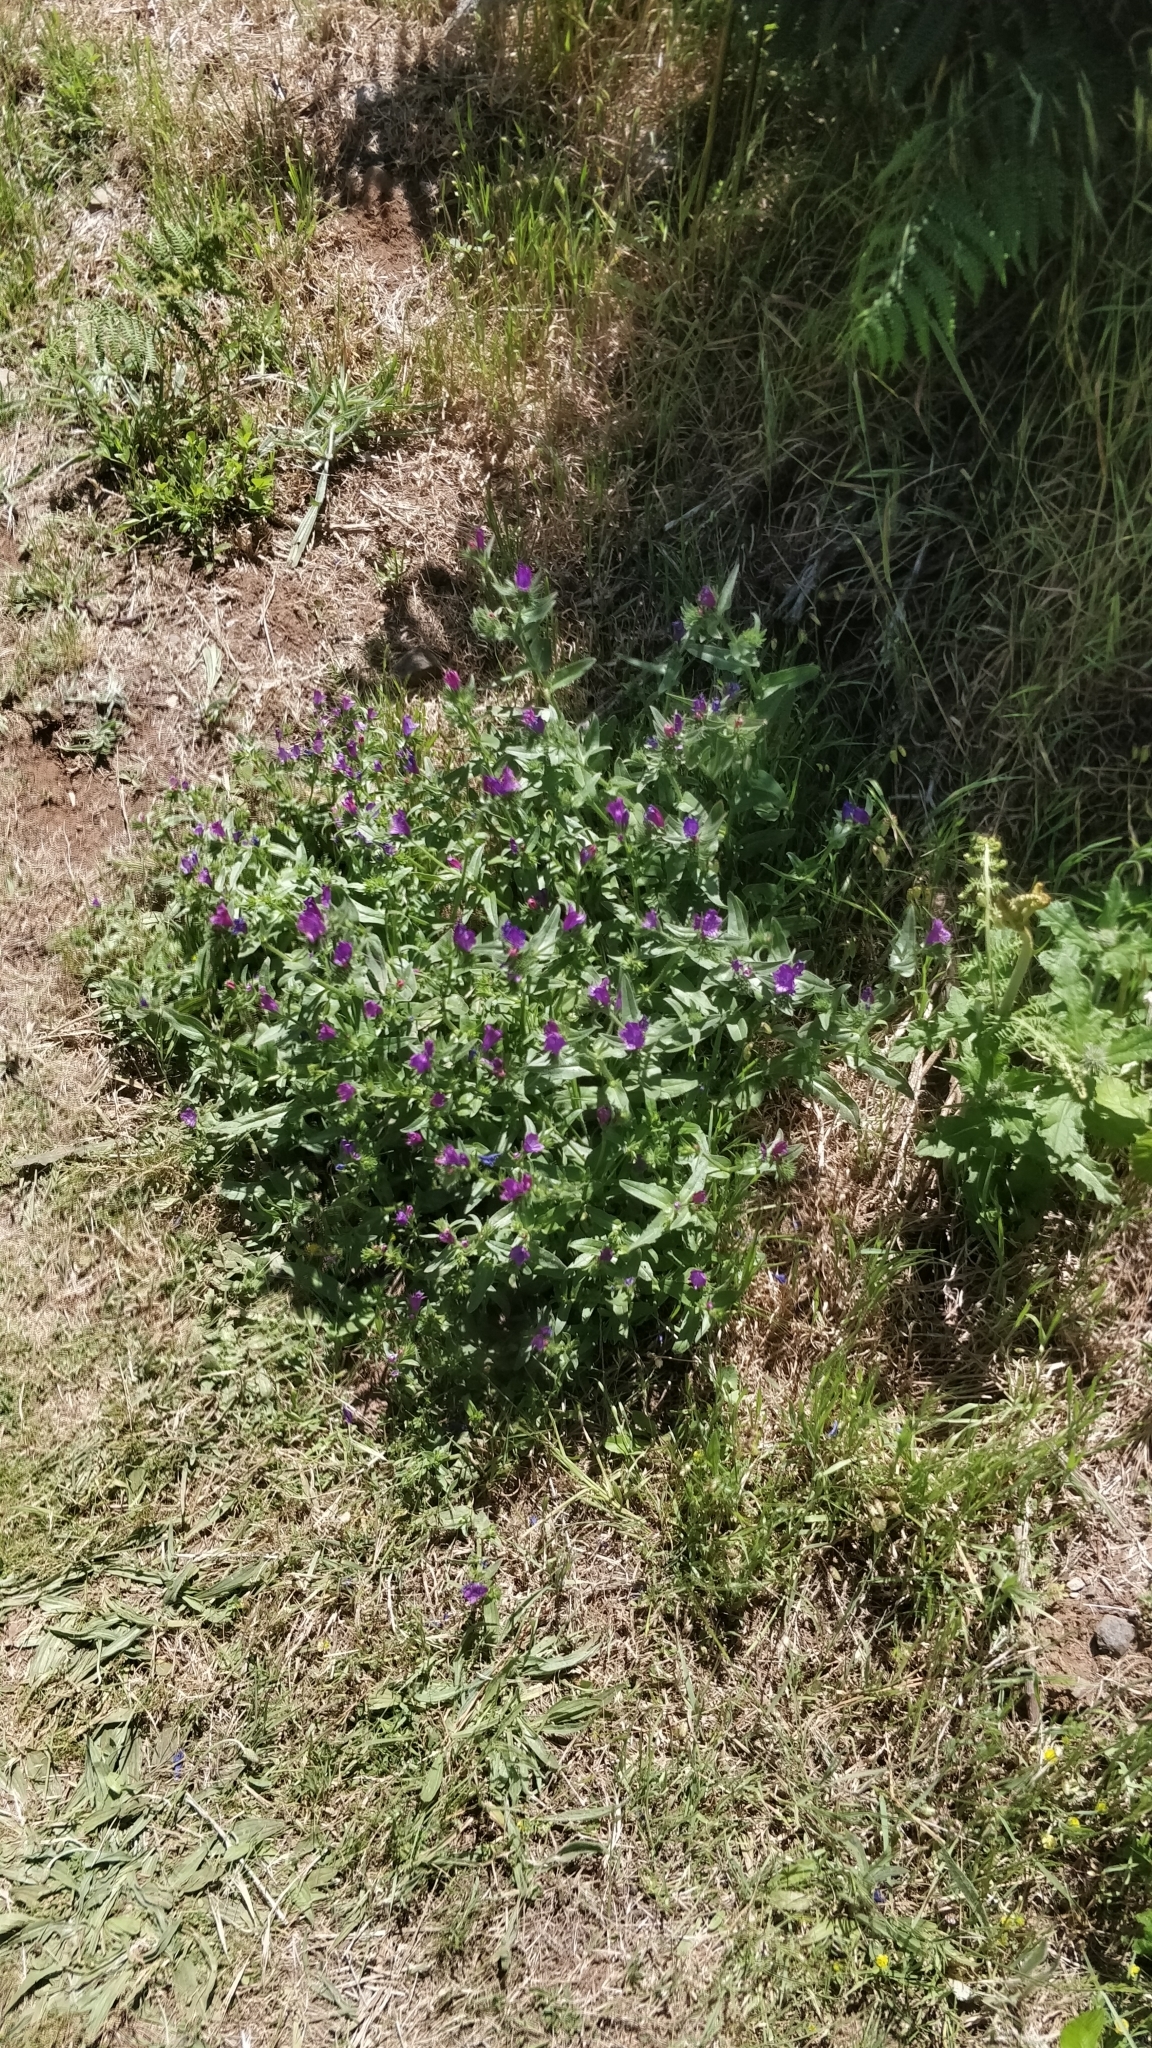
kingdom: Plantae
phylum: Tracheophyta
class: Magnoliopsida
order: Boraginales
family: Boraginaceae
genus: Echium
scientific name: Echium plantagineum
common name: Purple viper's-bugloss
